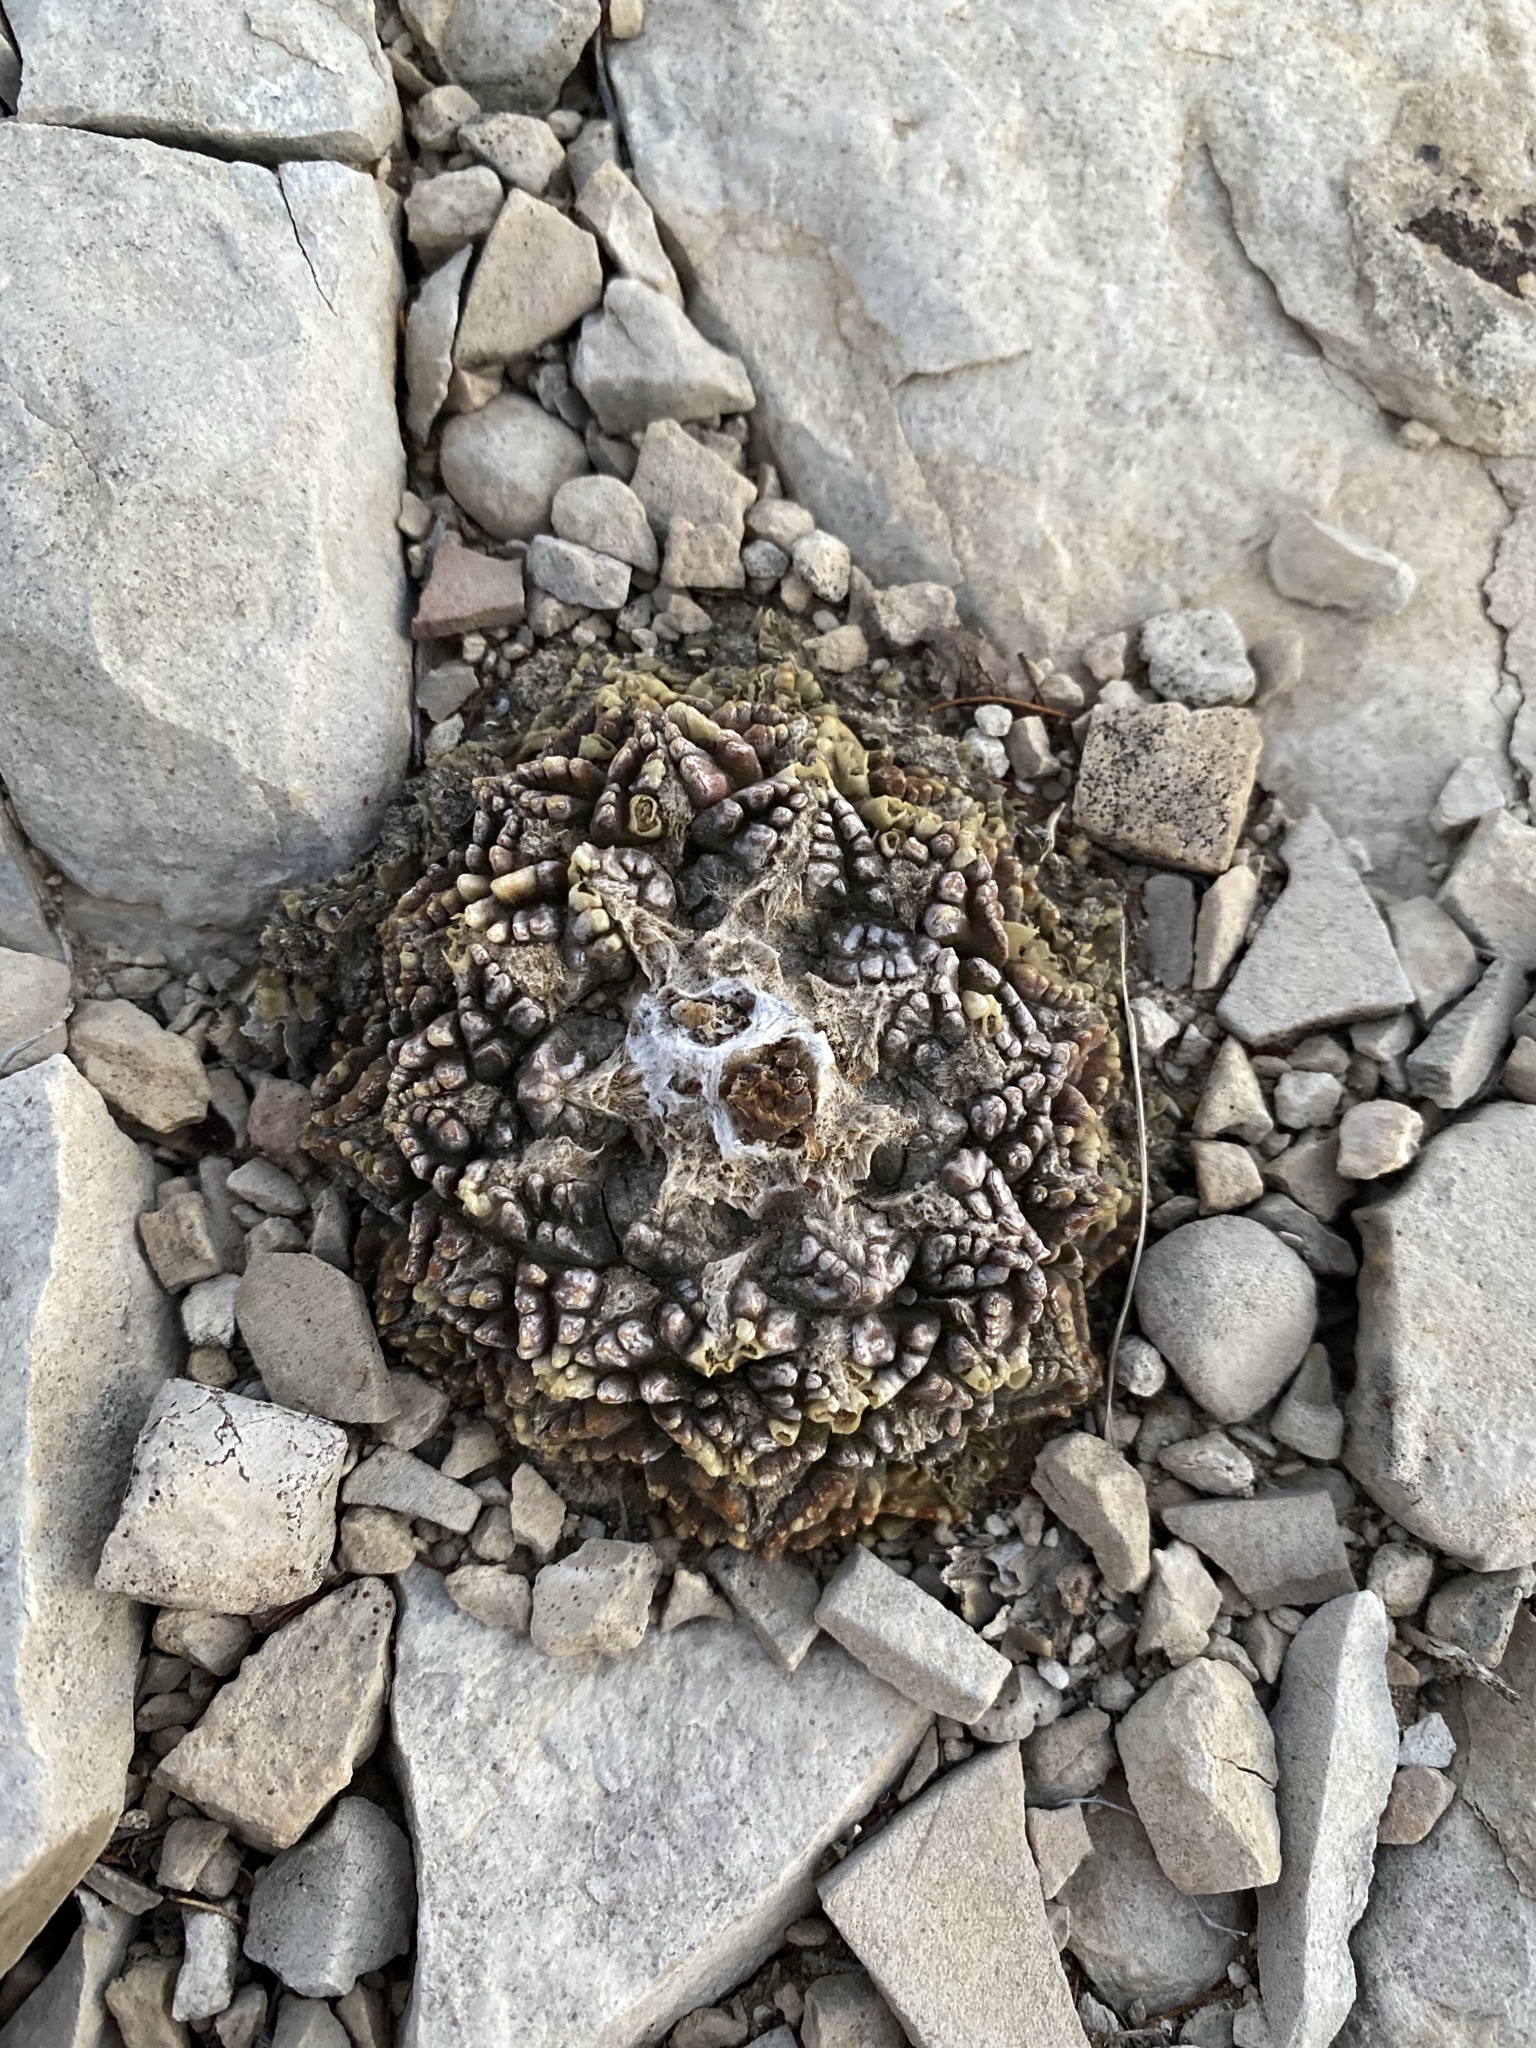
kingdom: Plantae
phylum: Tracheophyta
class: Magnoliopsida
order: Caryophyllales
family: Cactaceae
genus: Ariocarpus
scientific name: Ariocarpus fissuratus
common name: Chautle-living rock
